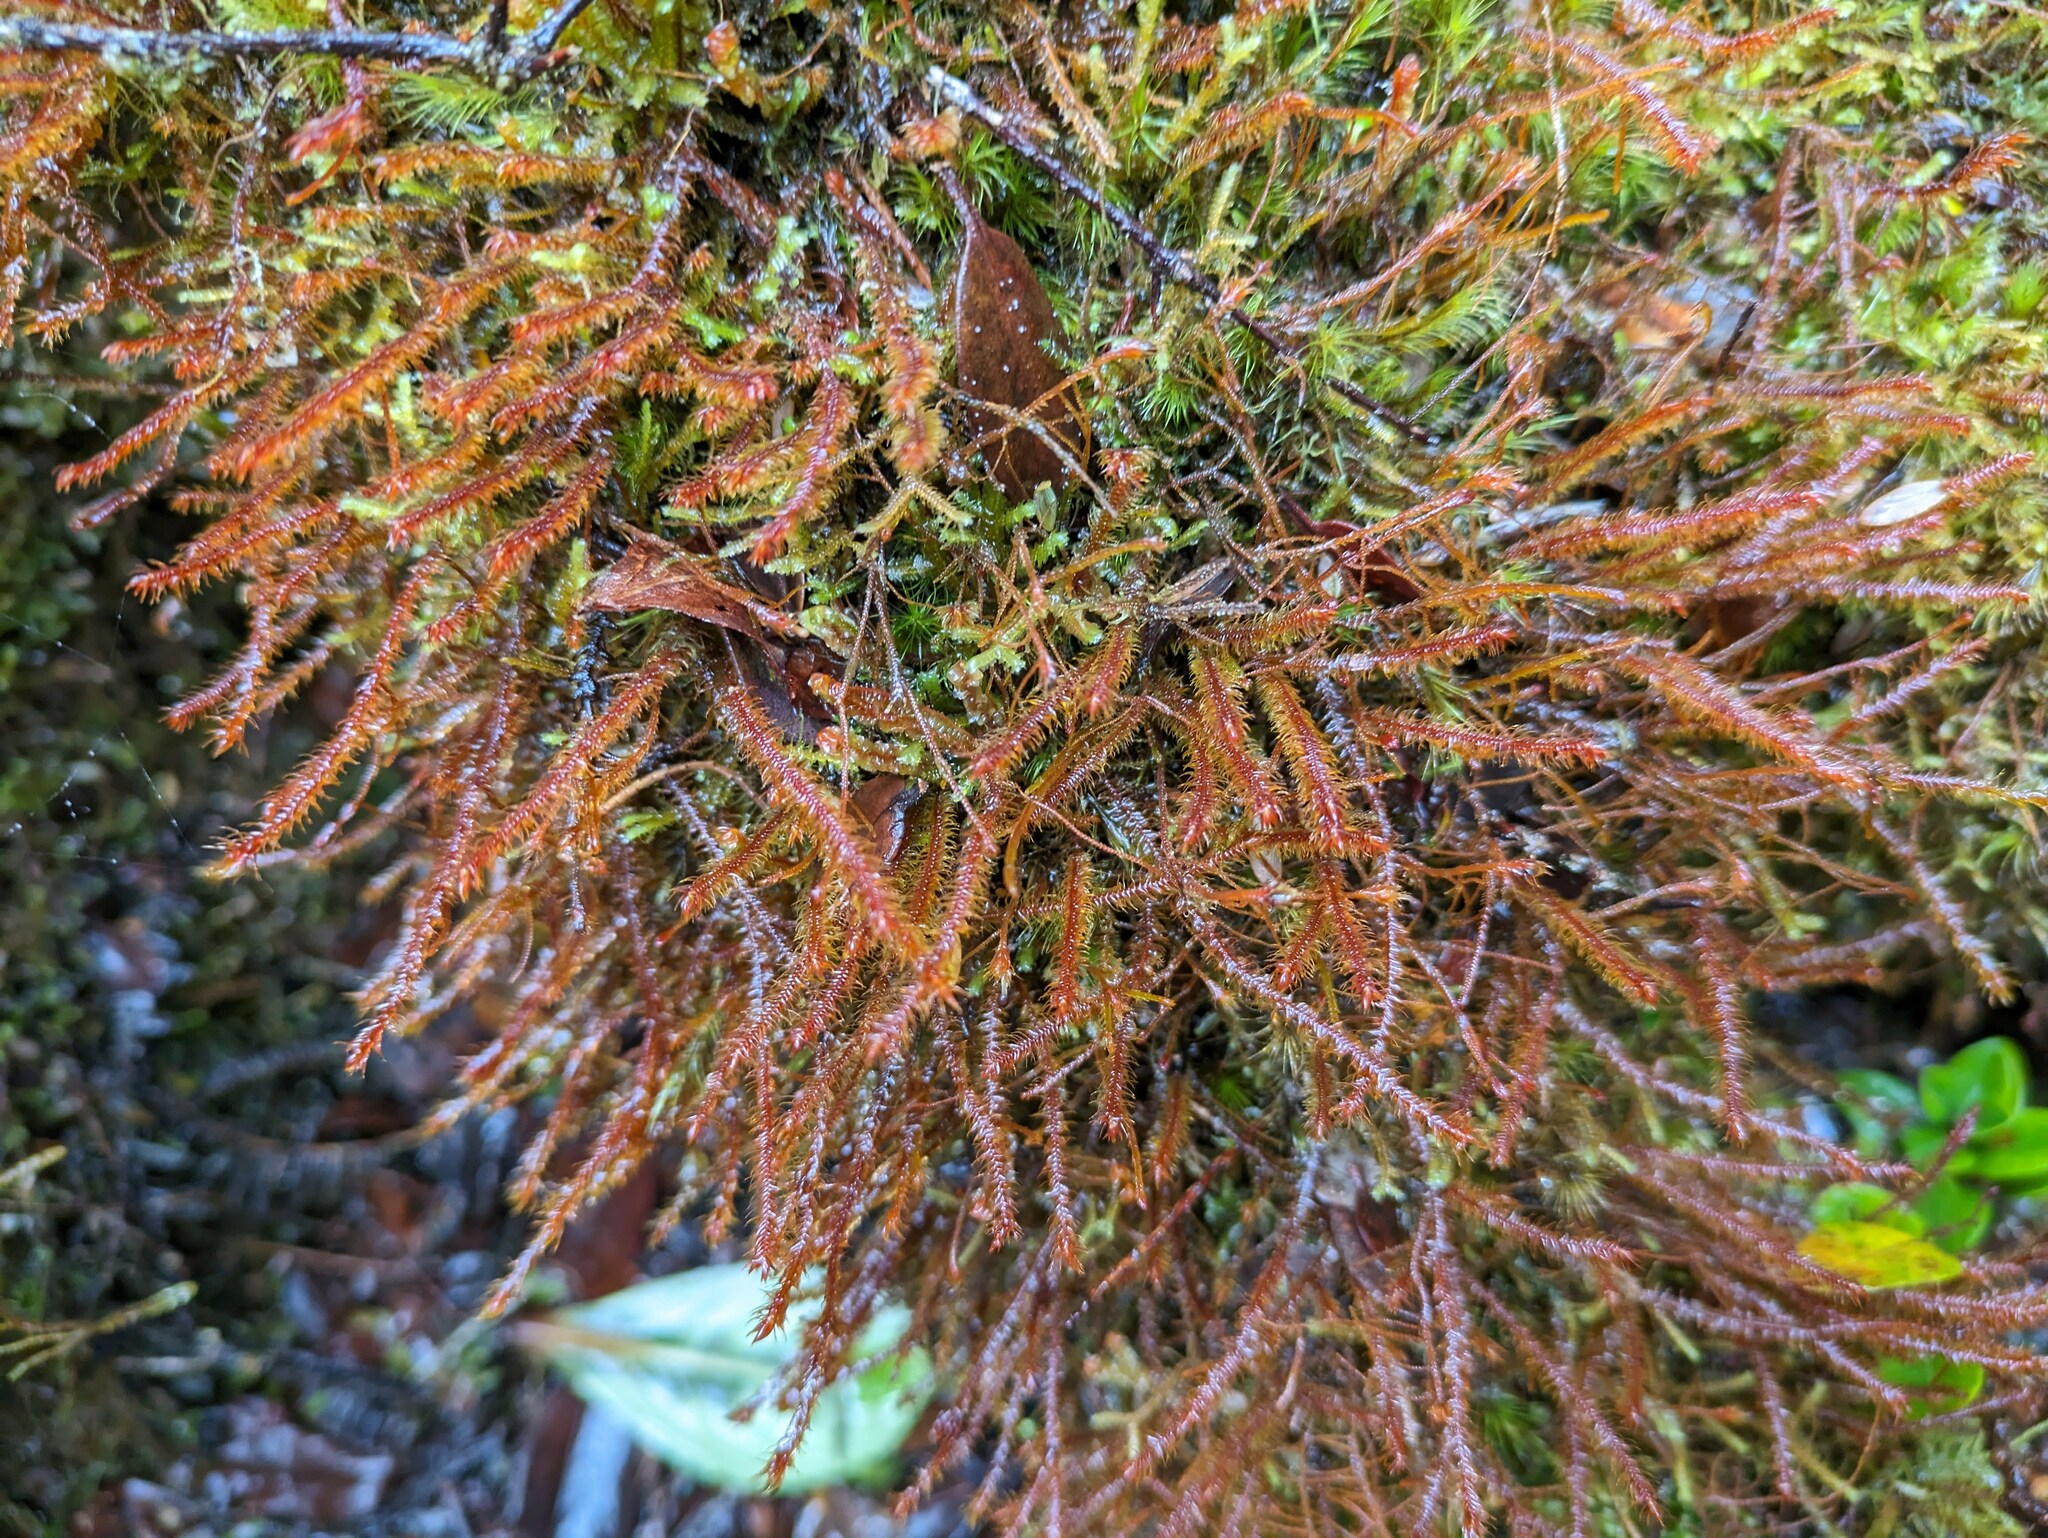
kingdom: Plantae
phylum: Marchantiophyta
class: Jungermanniopsida
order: Jungermanniales
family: Herbertaceae
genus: Herbertus
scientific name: Herbertus aduncus
